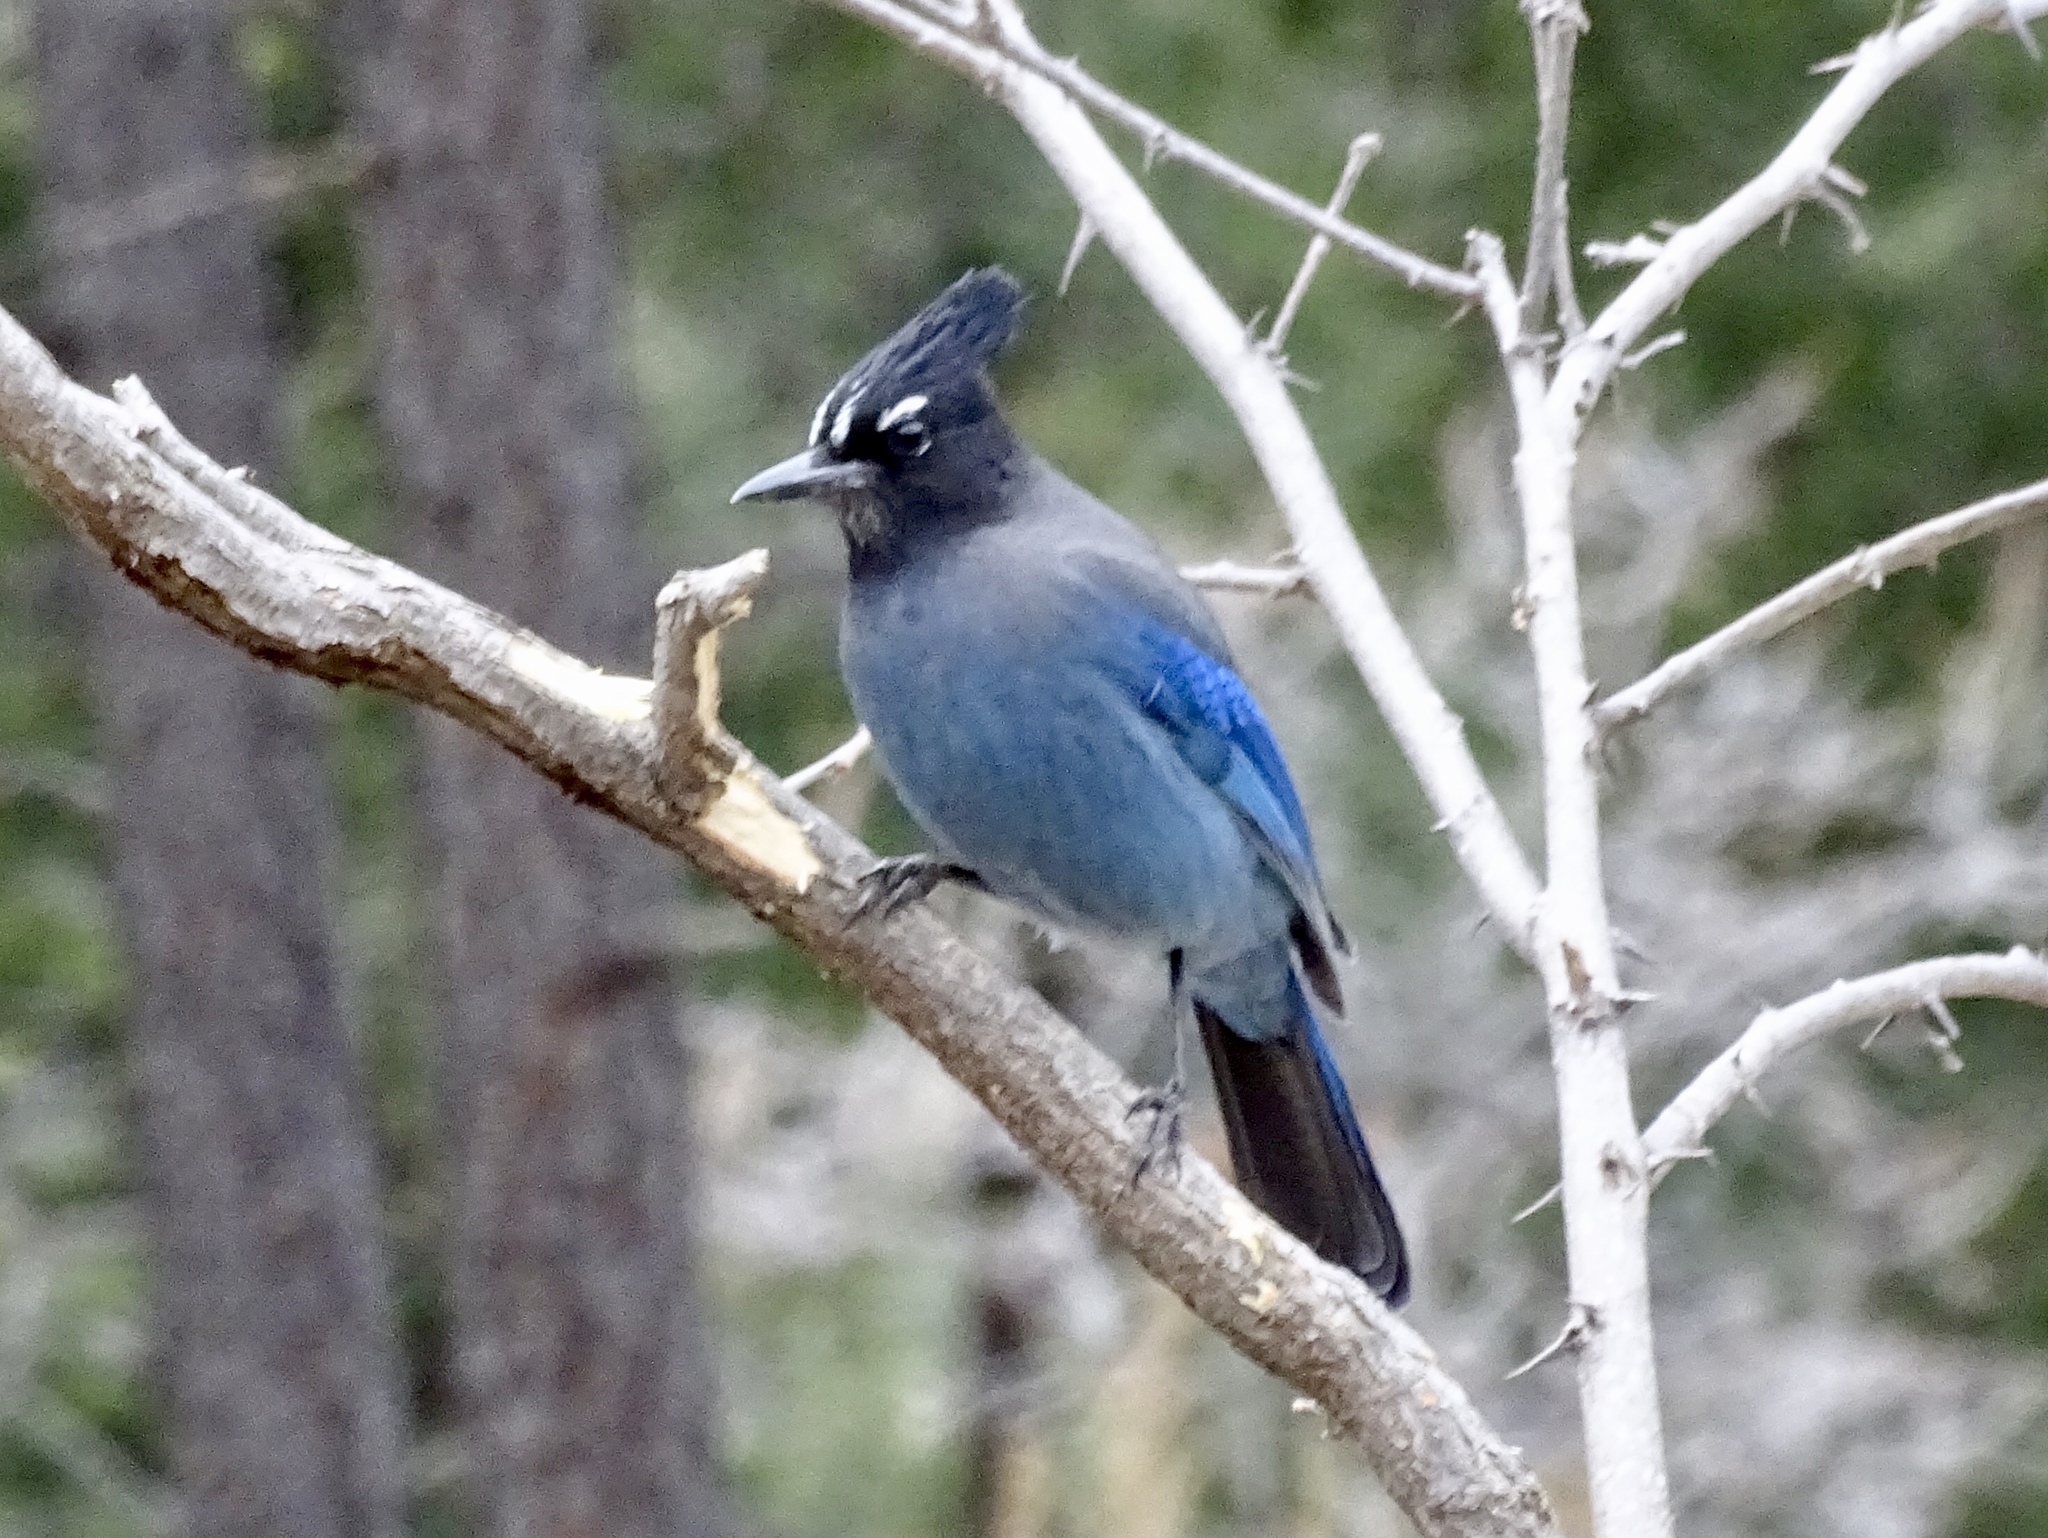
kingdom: Animalia
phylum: Chordata
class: Aves
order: Passeriformes
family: Corvidae
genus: Cyanocitta
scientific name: Cyanocitta stelleri
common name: Steller's jay
